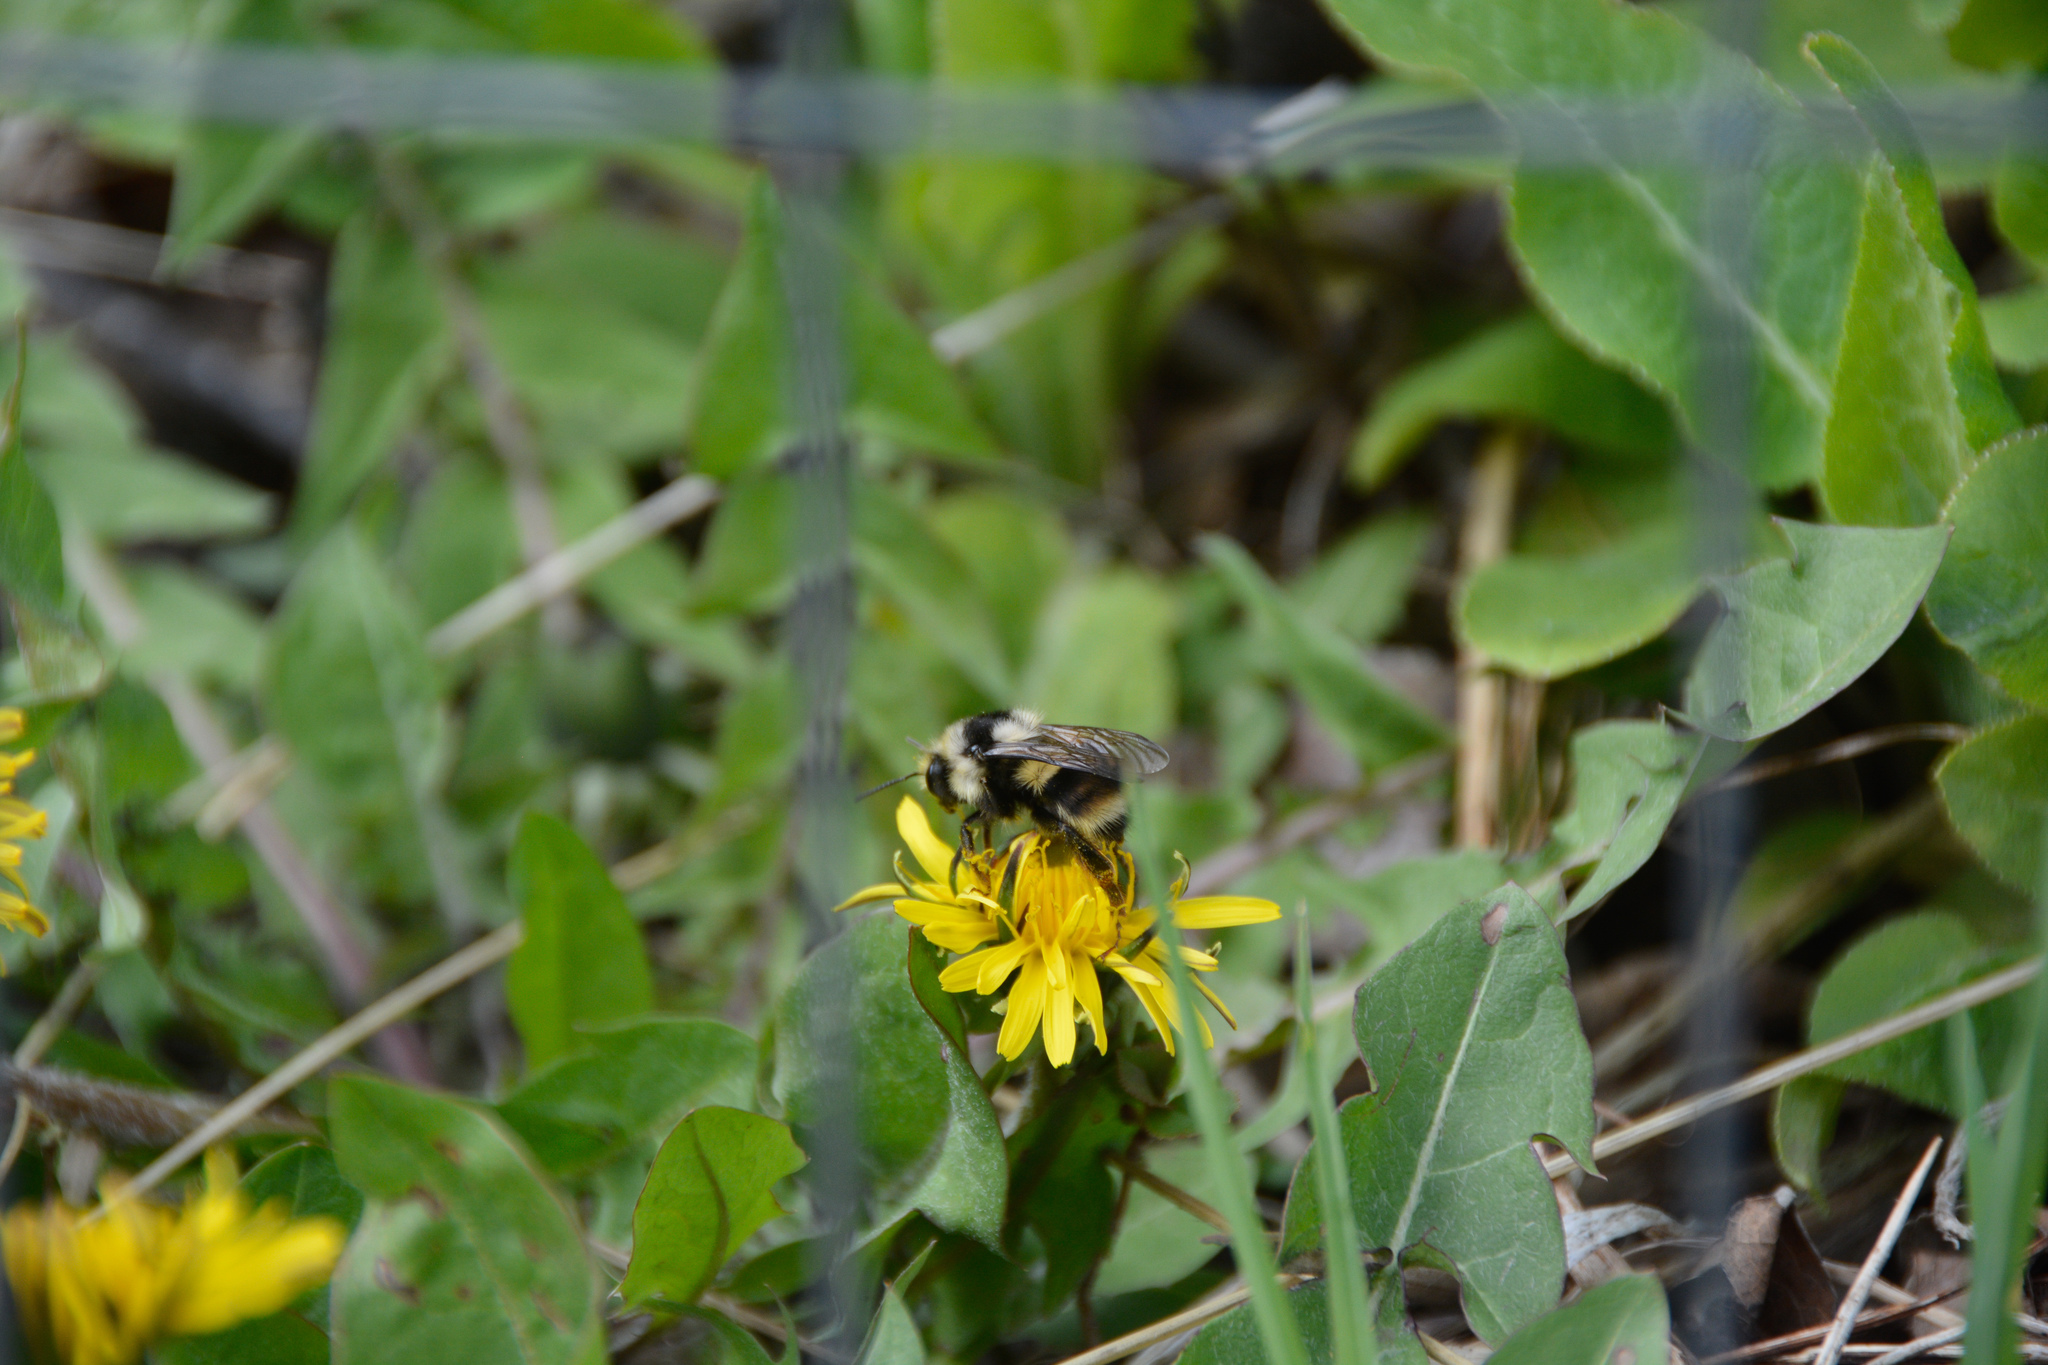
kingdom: Animalia
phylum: Arthropoda
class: Insecta
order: Hymenoptera
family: Apidae
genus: Bombus
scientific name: Bombus vancouverensis
